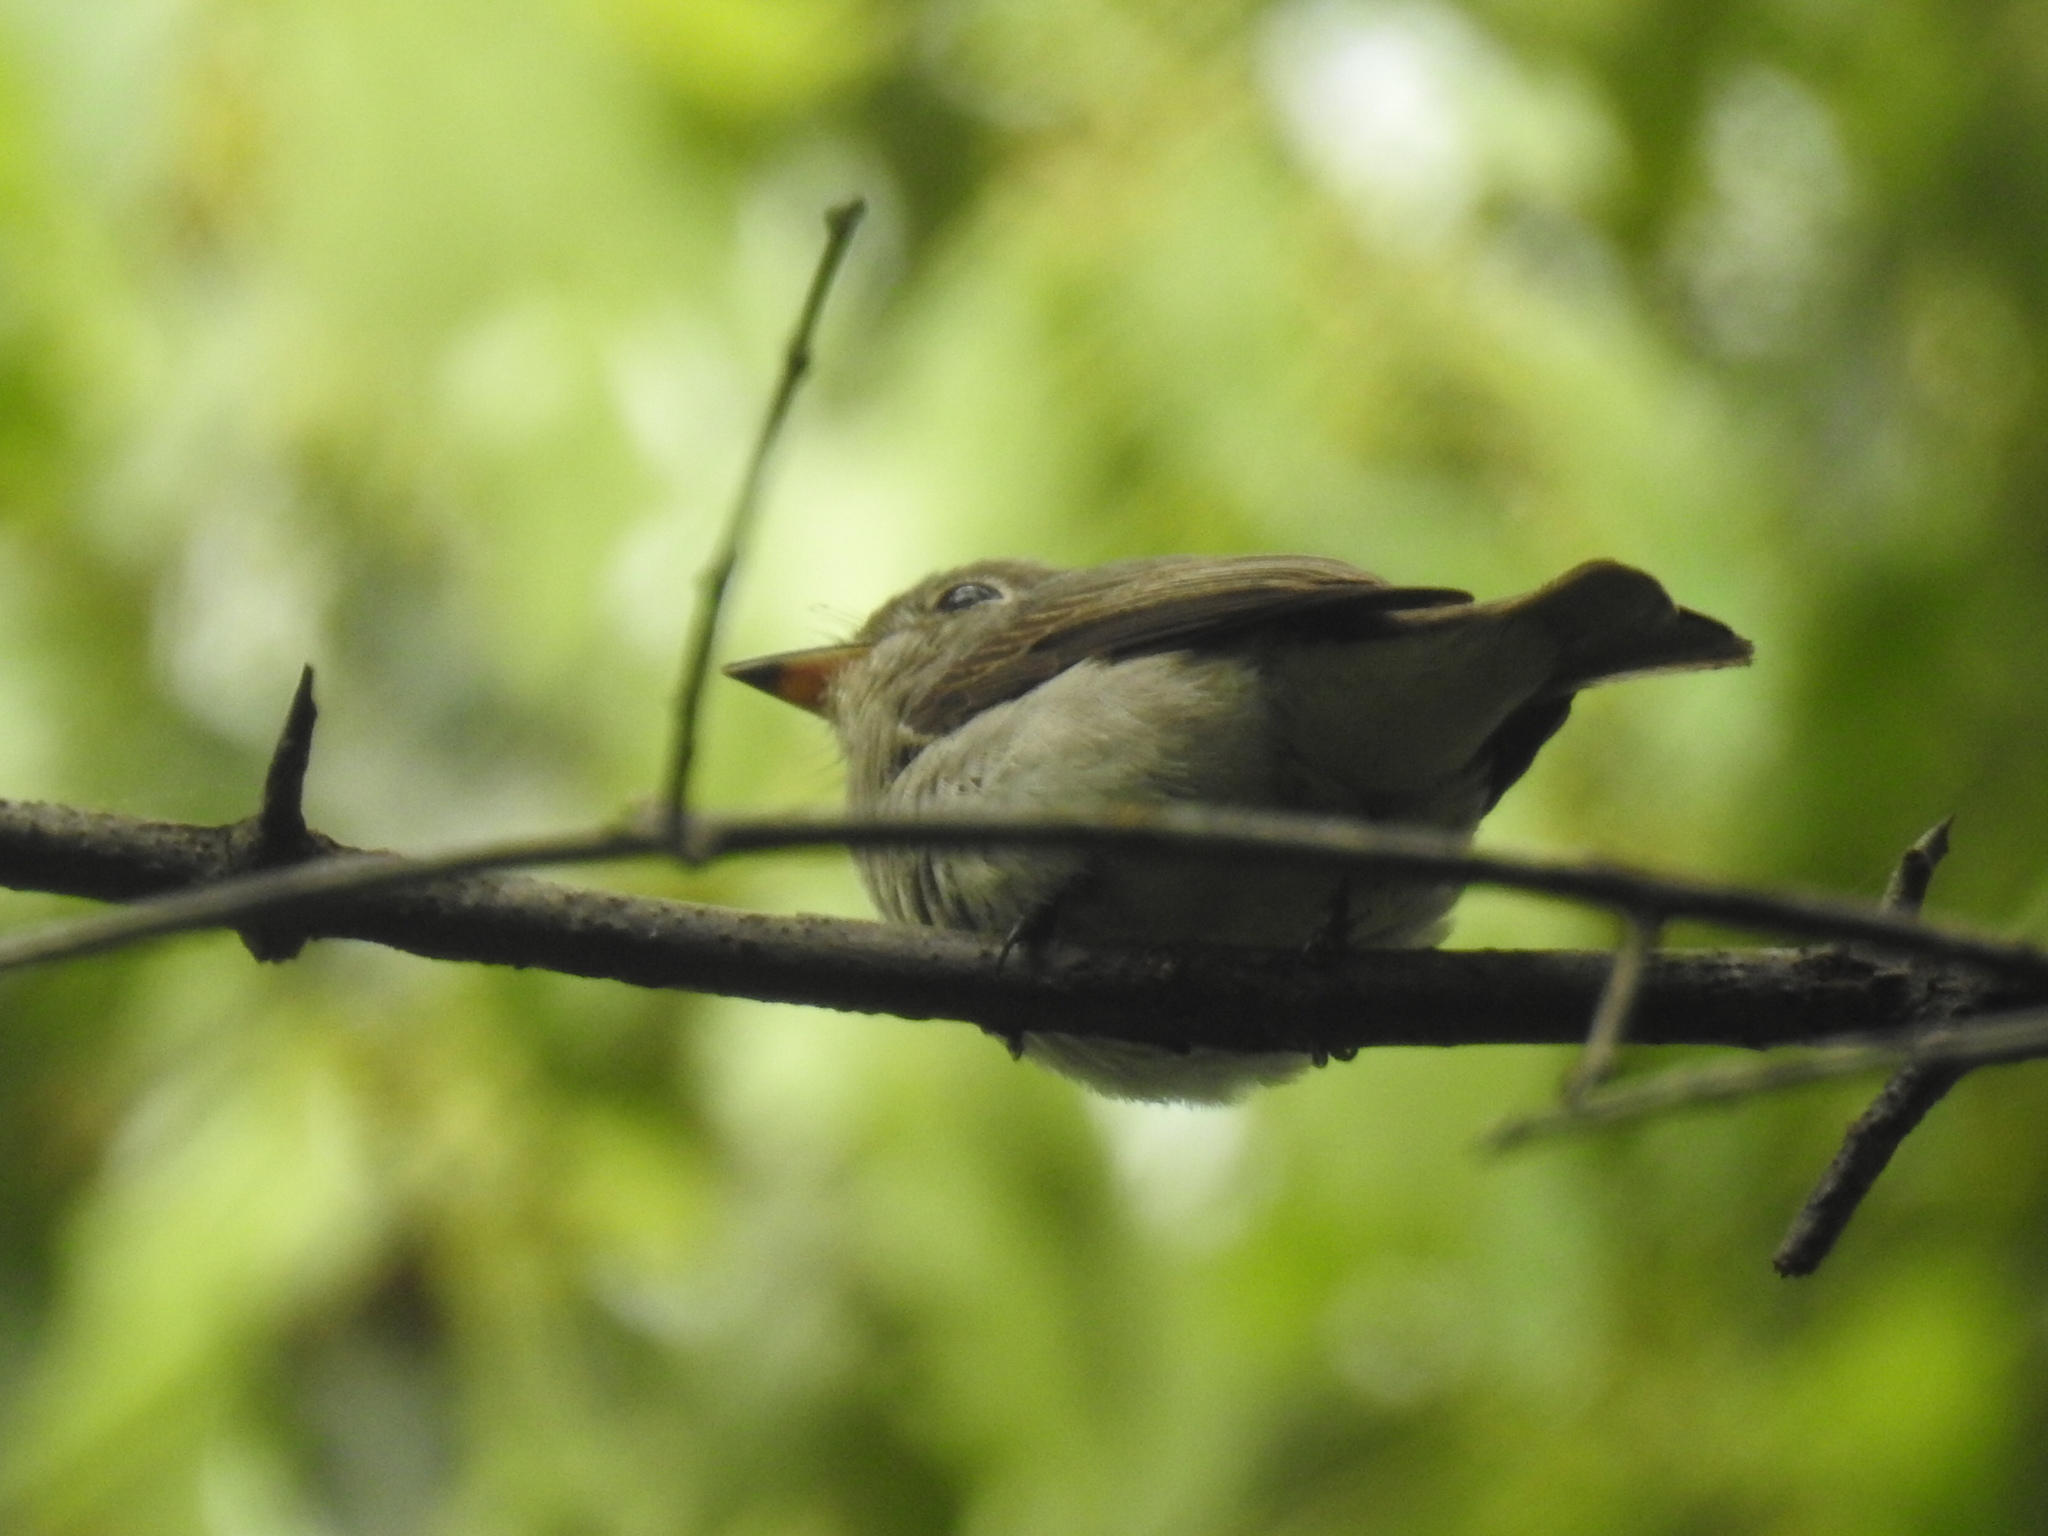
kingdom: Animalia
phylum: Chordata
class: Aves
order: Passeriformes
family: Muscicapidae
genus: Muscicapa
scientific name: Muscicapa latirostris
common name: Asian brown flycatcher
